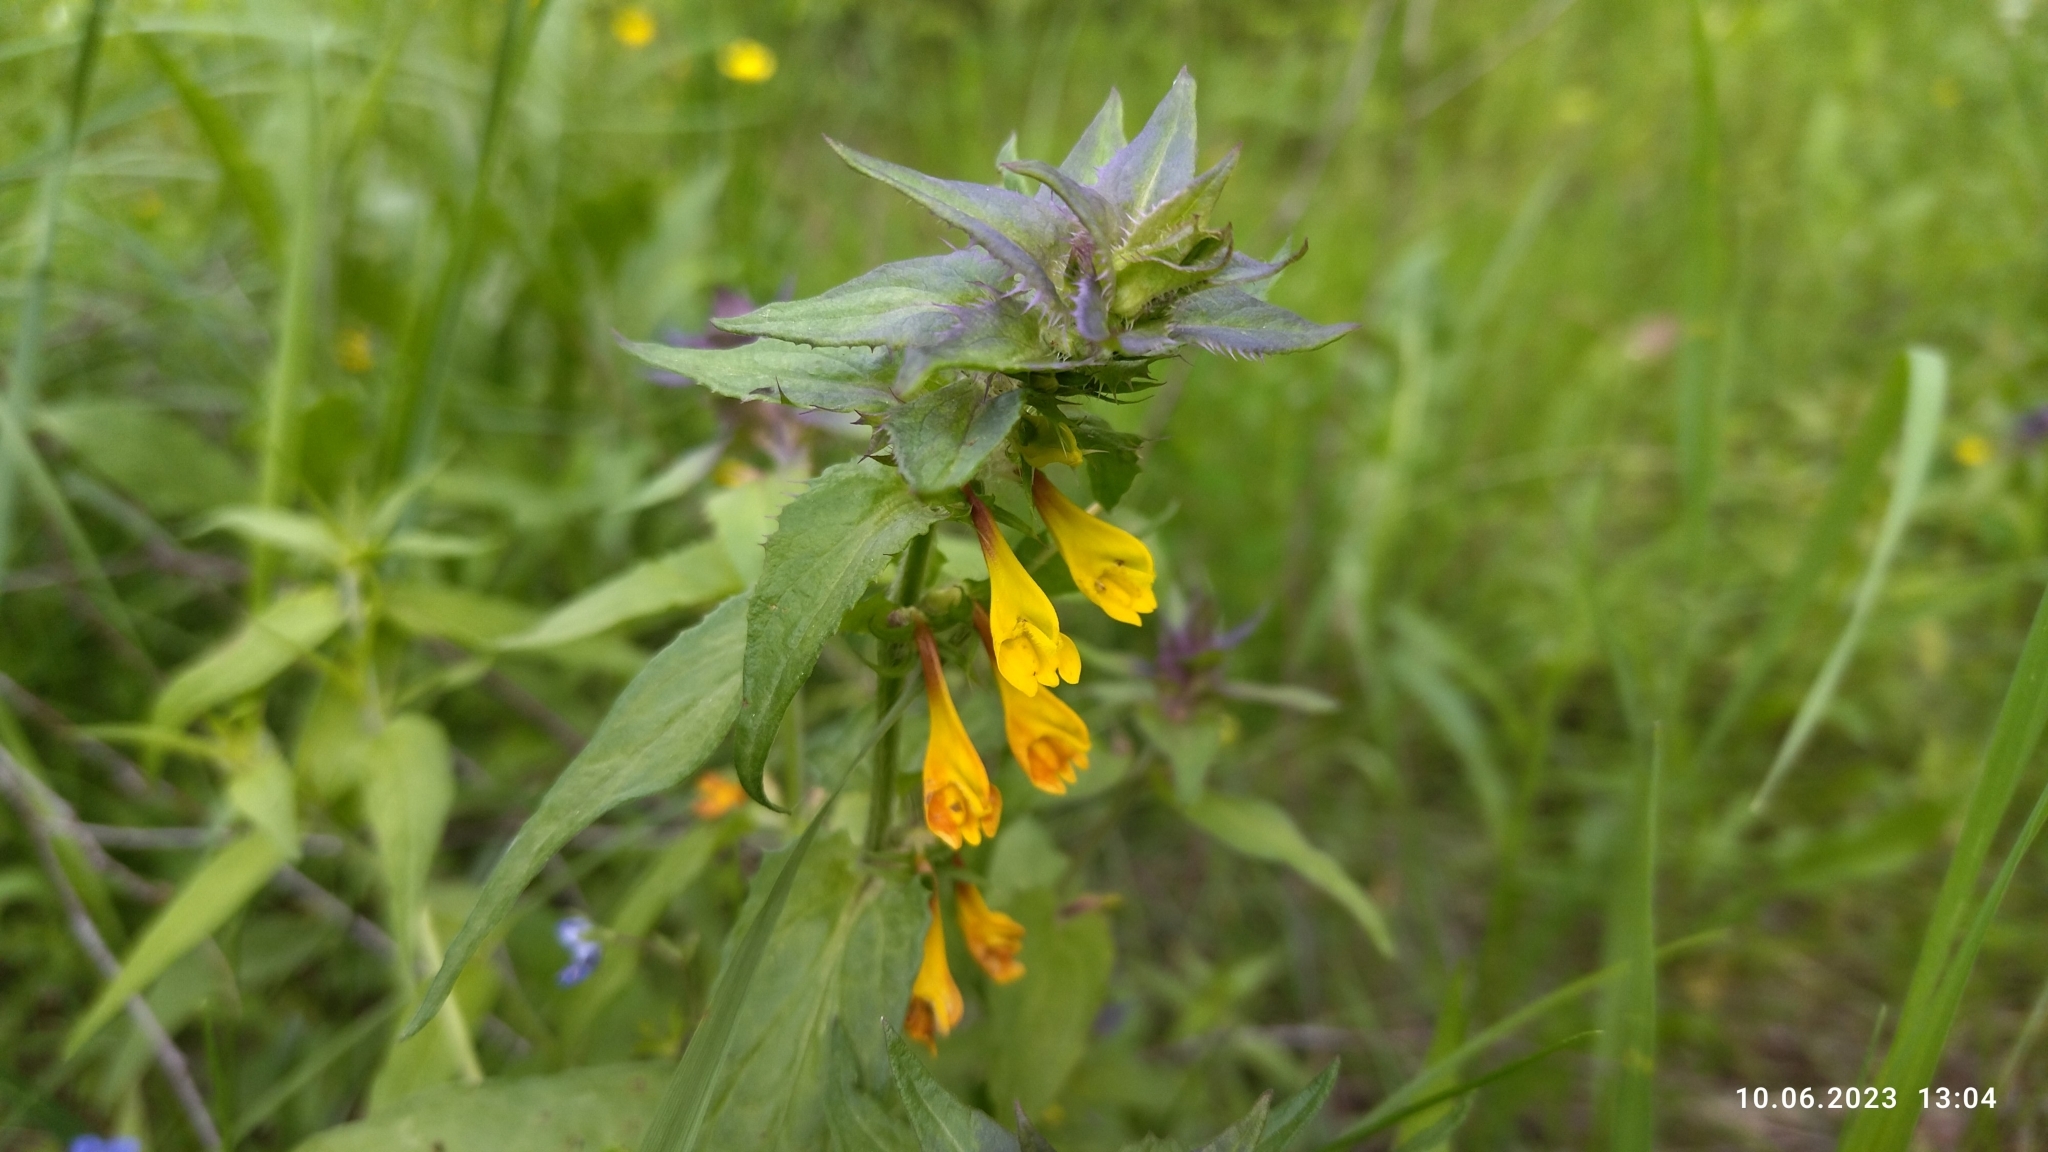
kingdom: Plantae
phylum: Tracheophyta
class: Magnoliopsida
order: Lamiales
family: Orobanchaceae
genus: Melampyrum
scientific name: Melampyrum nemorosum
